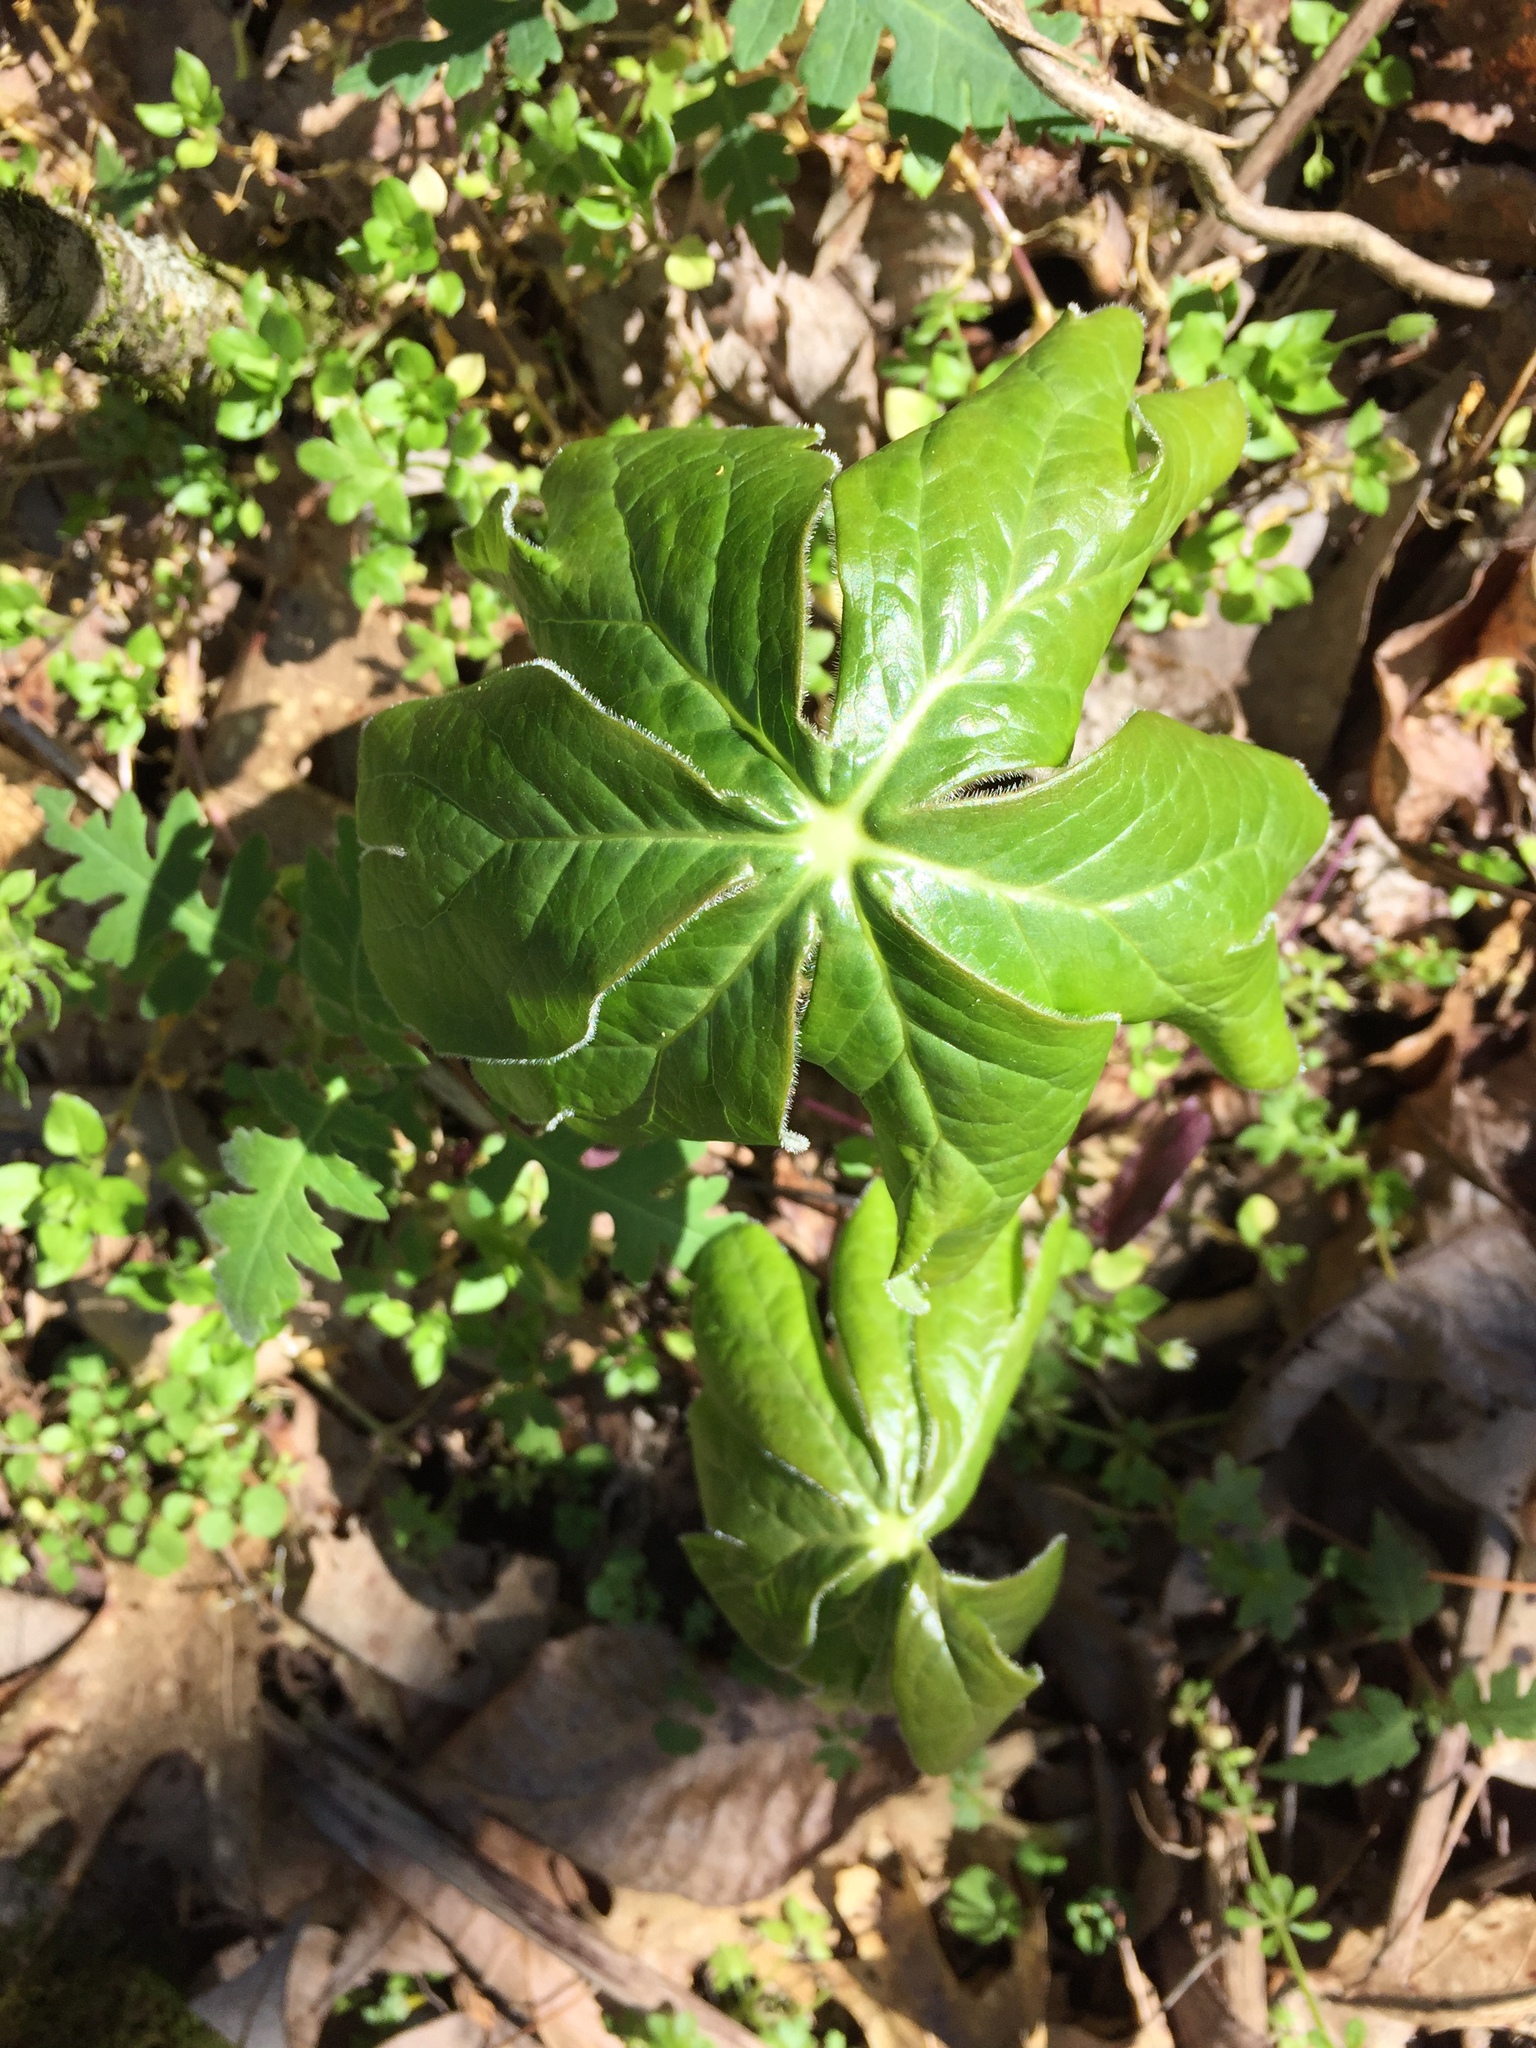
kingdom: Plantae
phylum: Tracheophyta
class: Magnoliopsida
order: Ranunculales
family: Berberidaceae
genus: Podophyllum
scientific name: Podophyllum peltatum
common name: Wild mandrake
